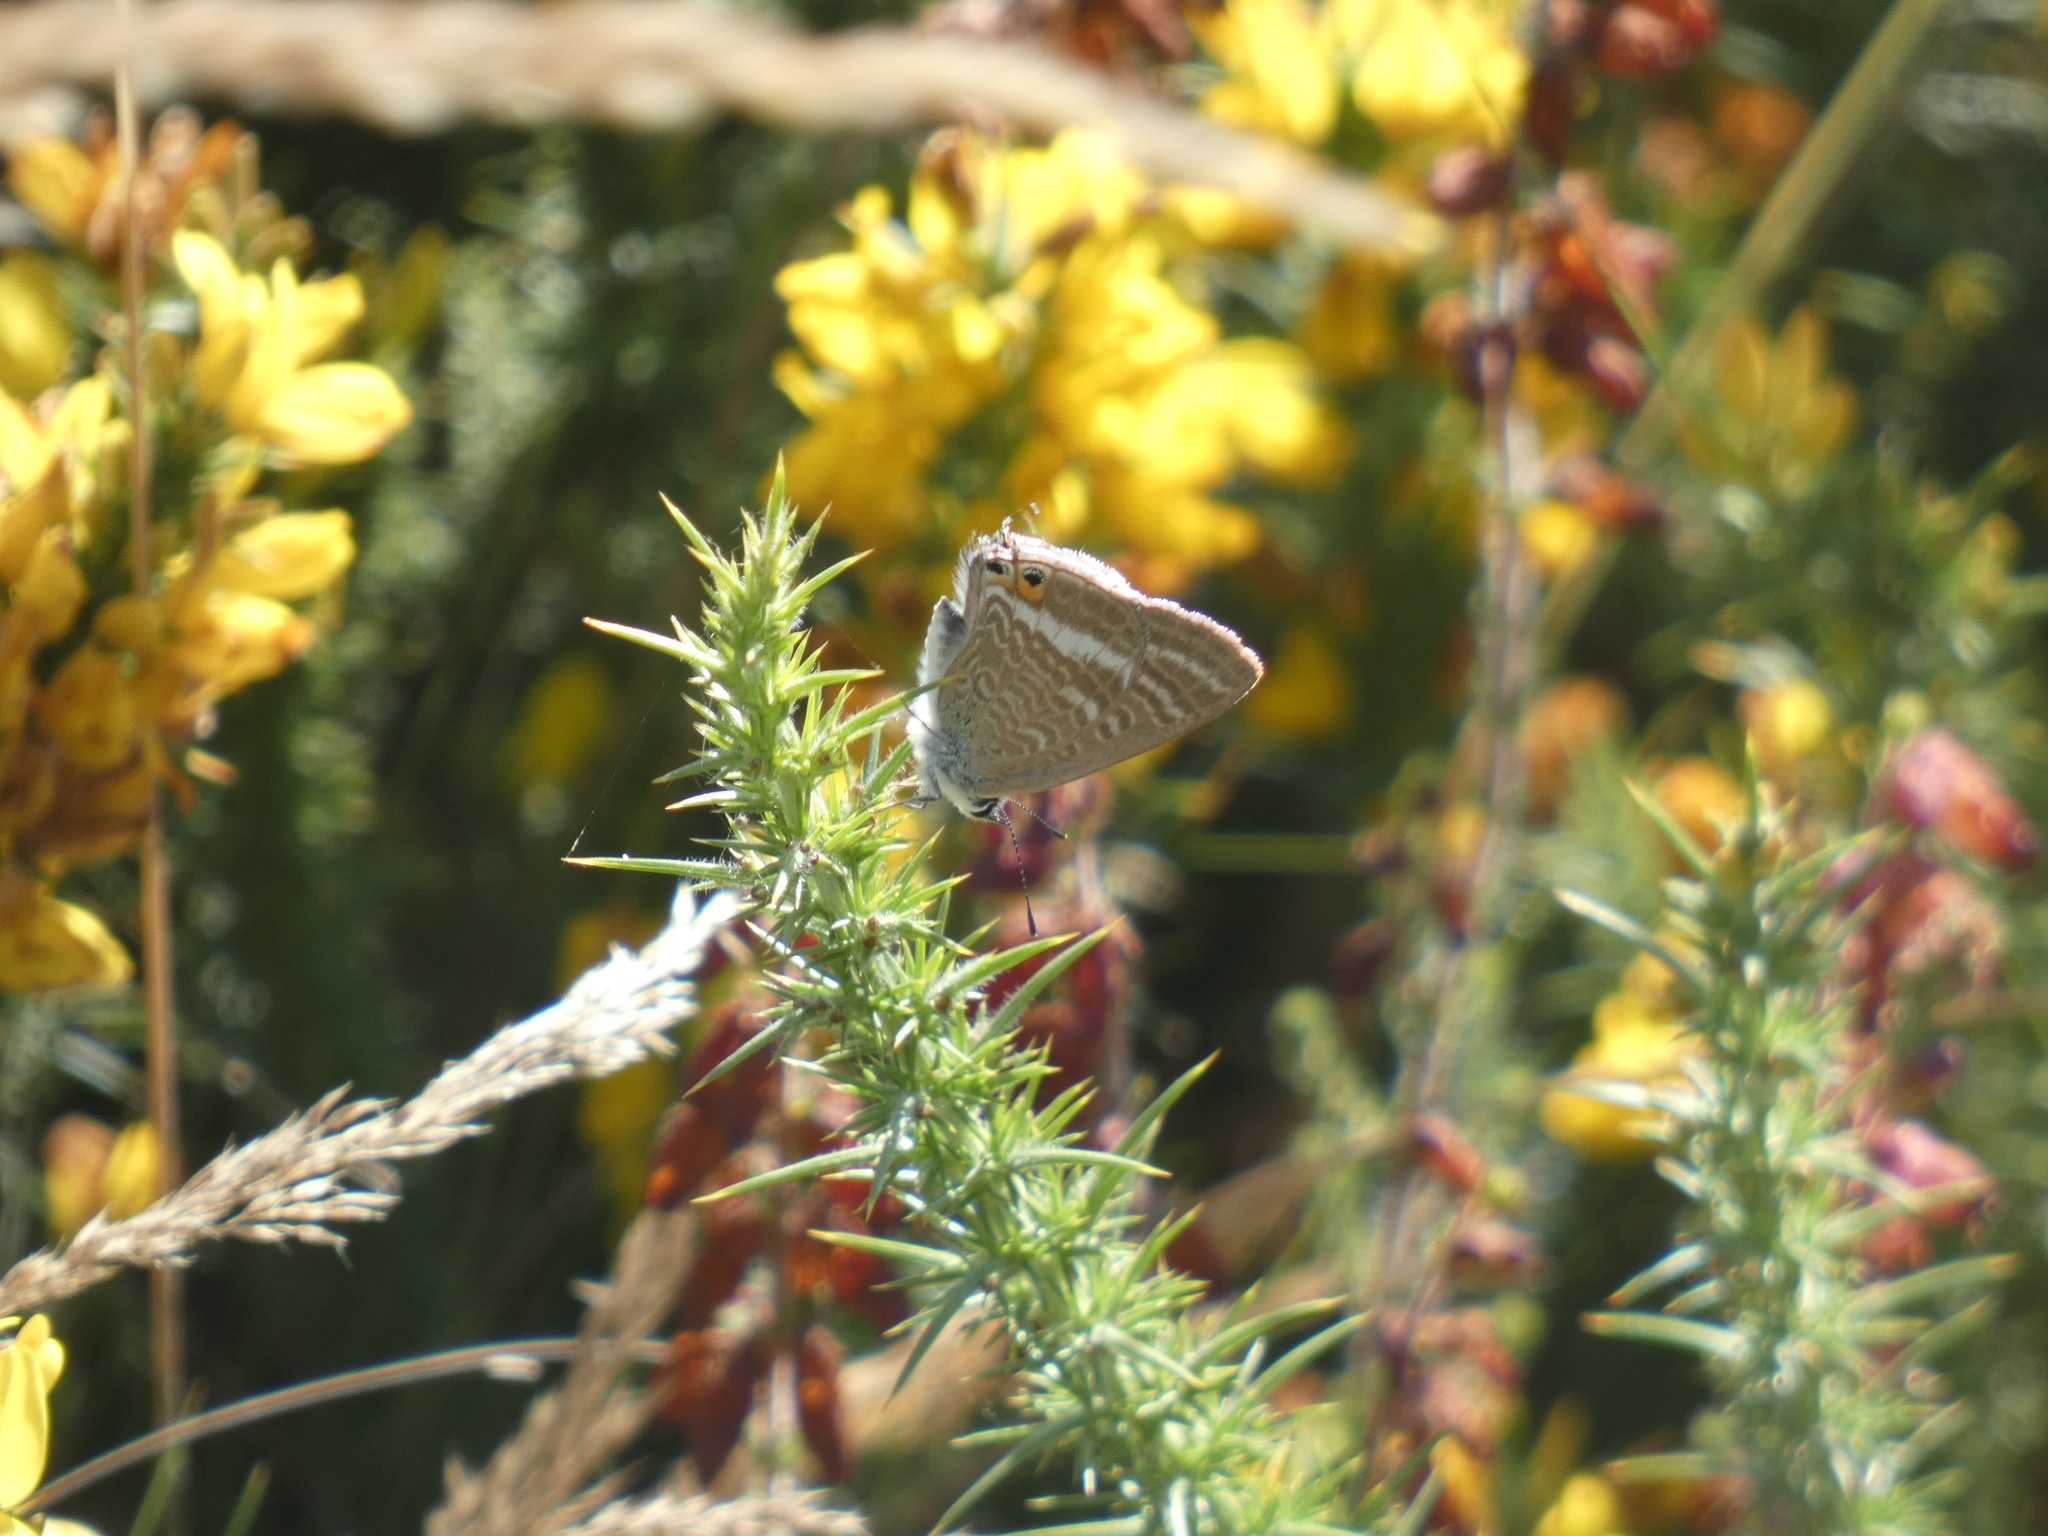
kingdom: Animalia
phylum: Arthropoda
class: Insecta
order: Lepidoptera
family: Lycaenidae
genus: Lampides
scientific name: Lampides boeticus
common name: Long-tailed blue
